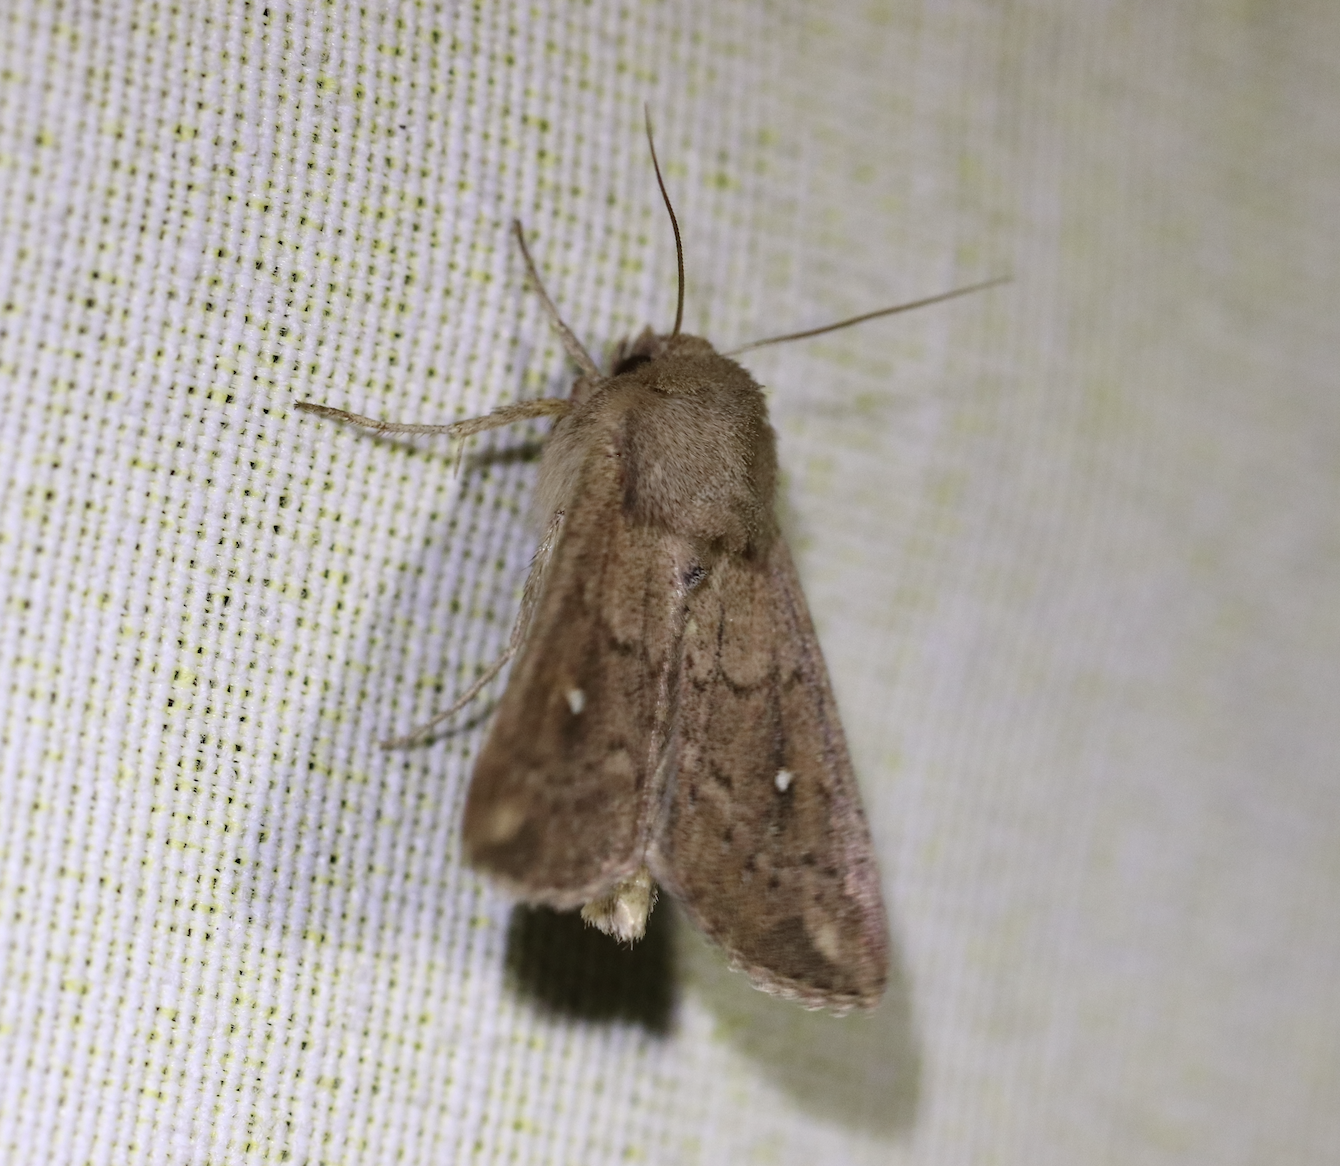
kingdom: Animalia
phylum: Arthropoda
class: Insecta
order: Lepidoptera
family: Noctuidae
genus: Mythimna
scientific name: Mythimna albipuncta
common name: White-point
